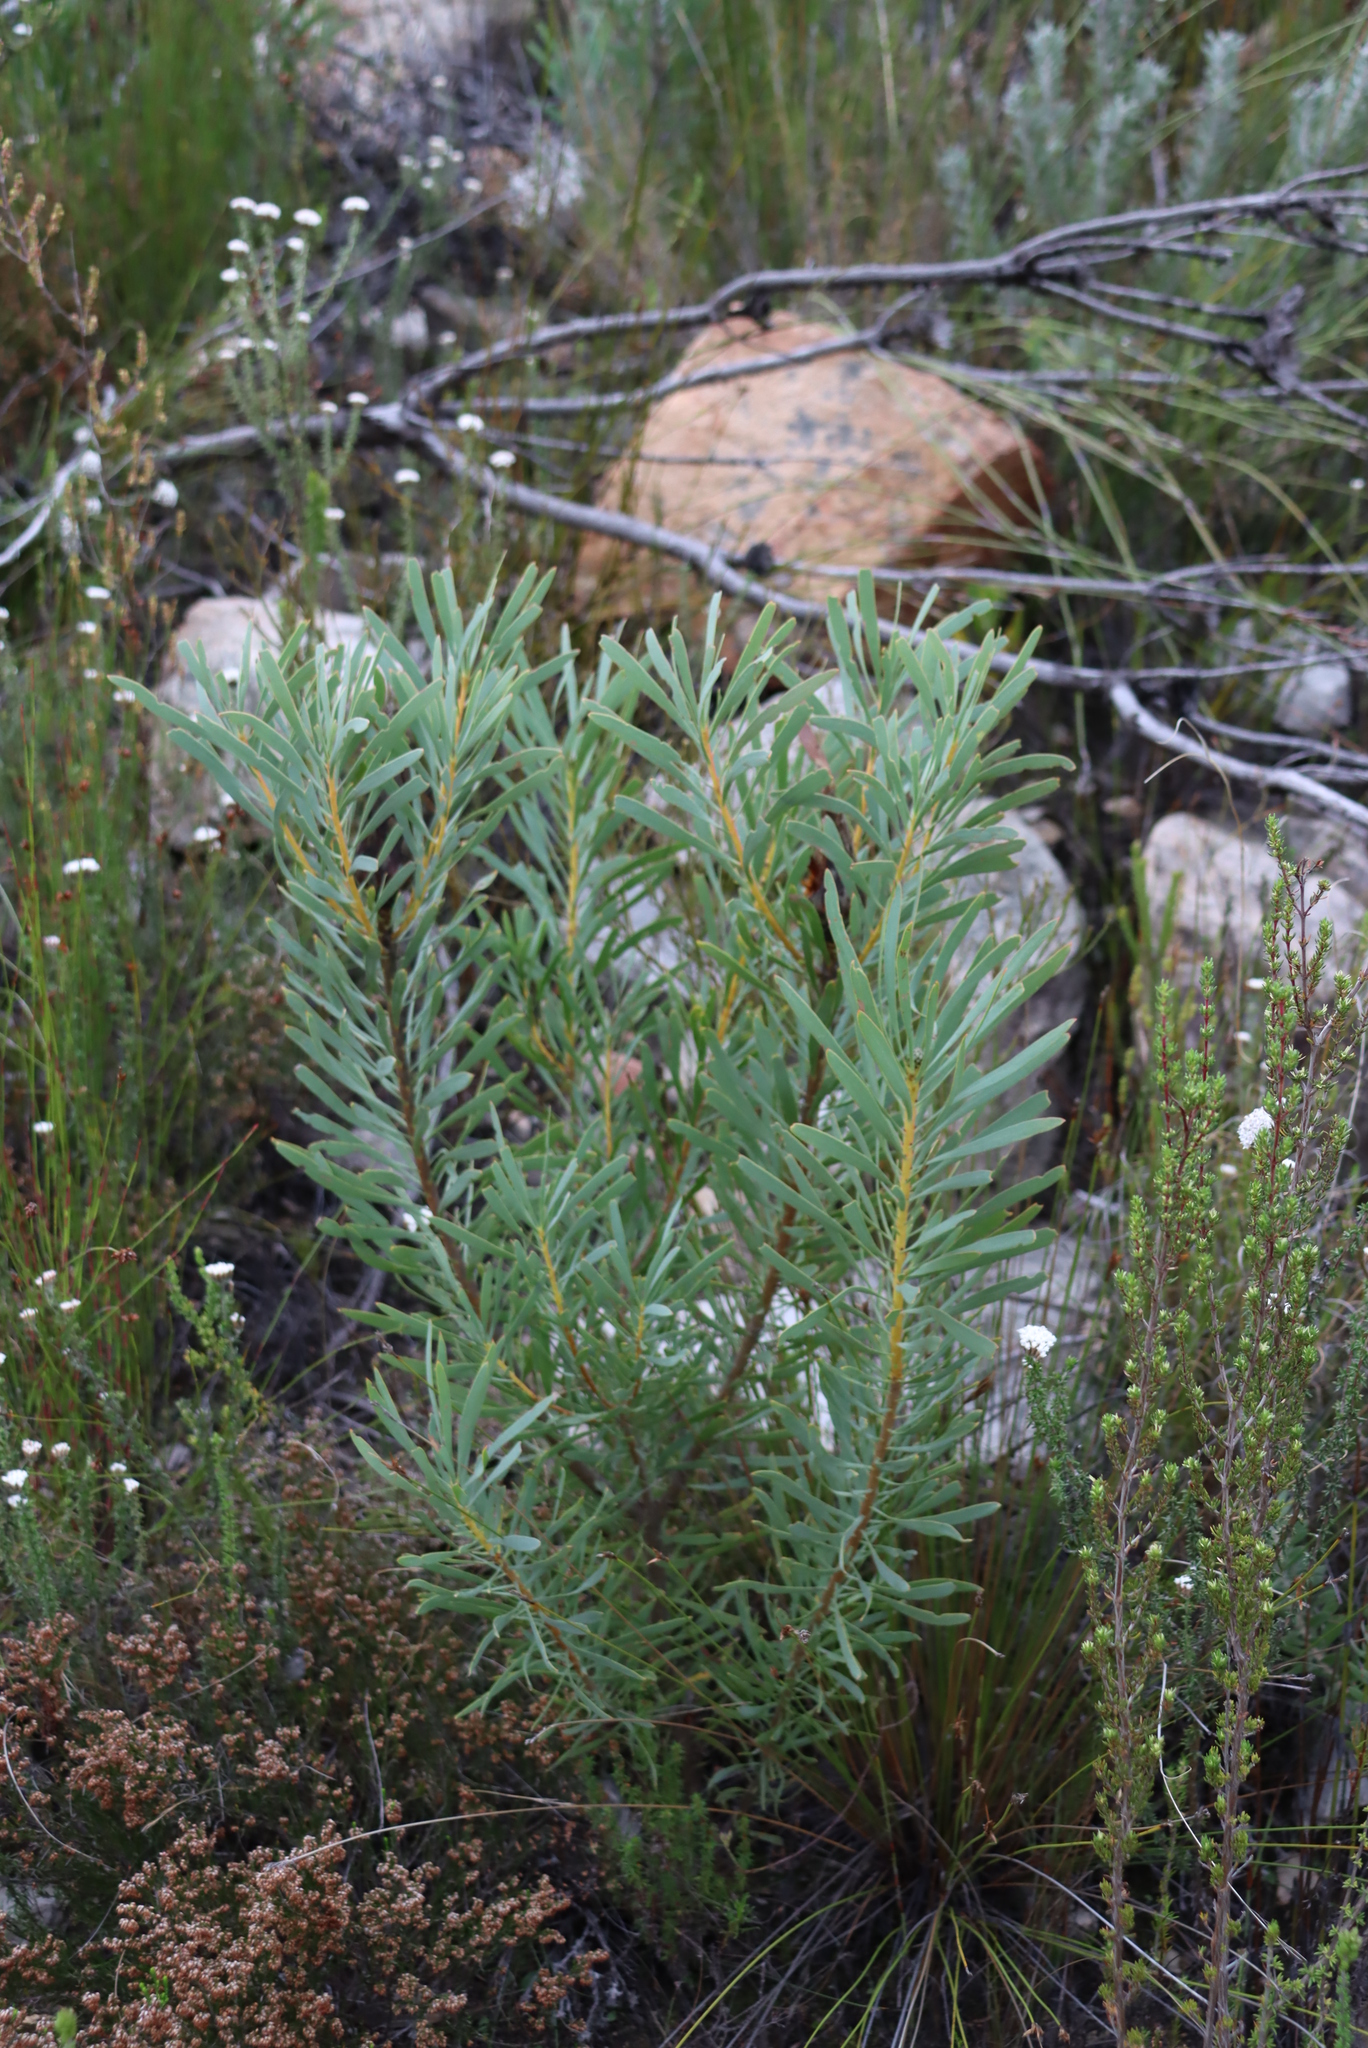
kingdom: Plantae
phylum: Tracheophyta
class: Magnoliopsida
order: Proteales
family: Proteaceae
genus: Protea
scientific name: Protea repens
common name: Sugarbush
